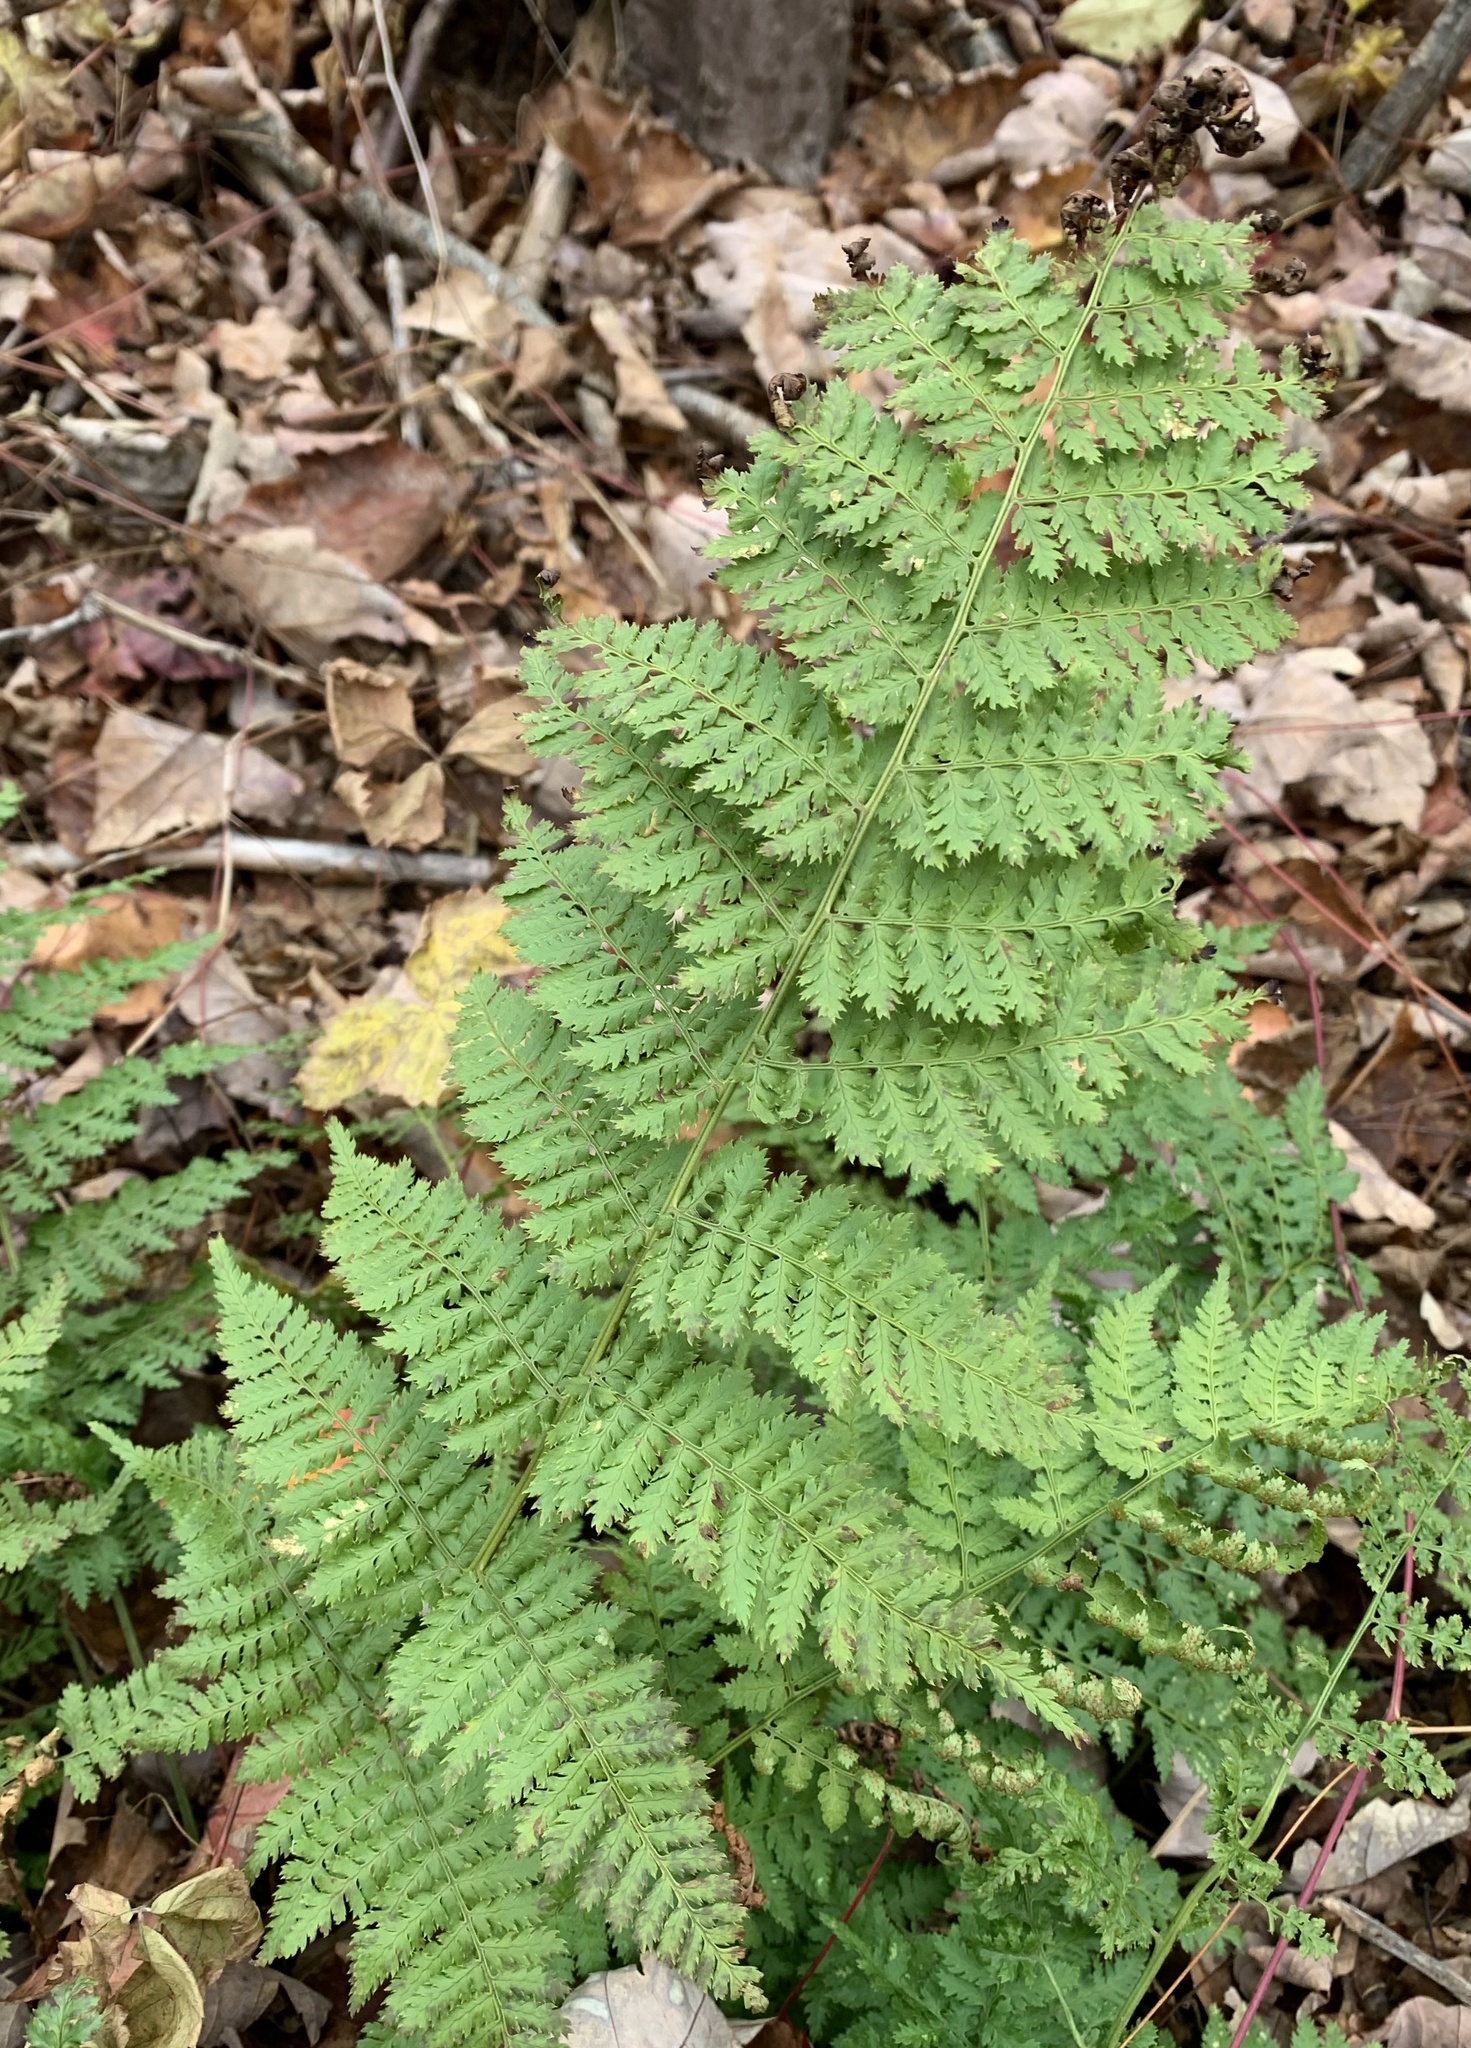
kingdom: Plantae
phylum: Tracheophyta
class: Polypodiopsida
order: Polypodiales
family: Dryopteridaceae
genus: Dryopteris
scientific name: Dryopteris intermedia
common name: Evergreen wood fern
